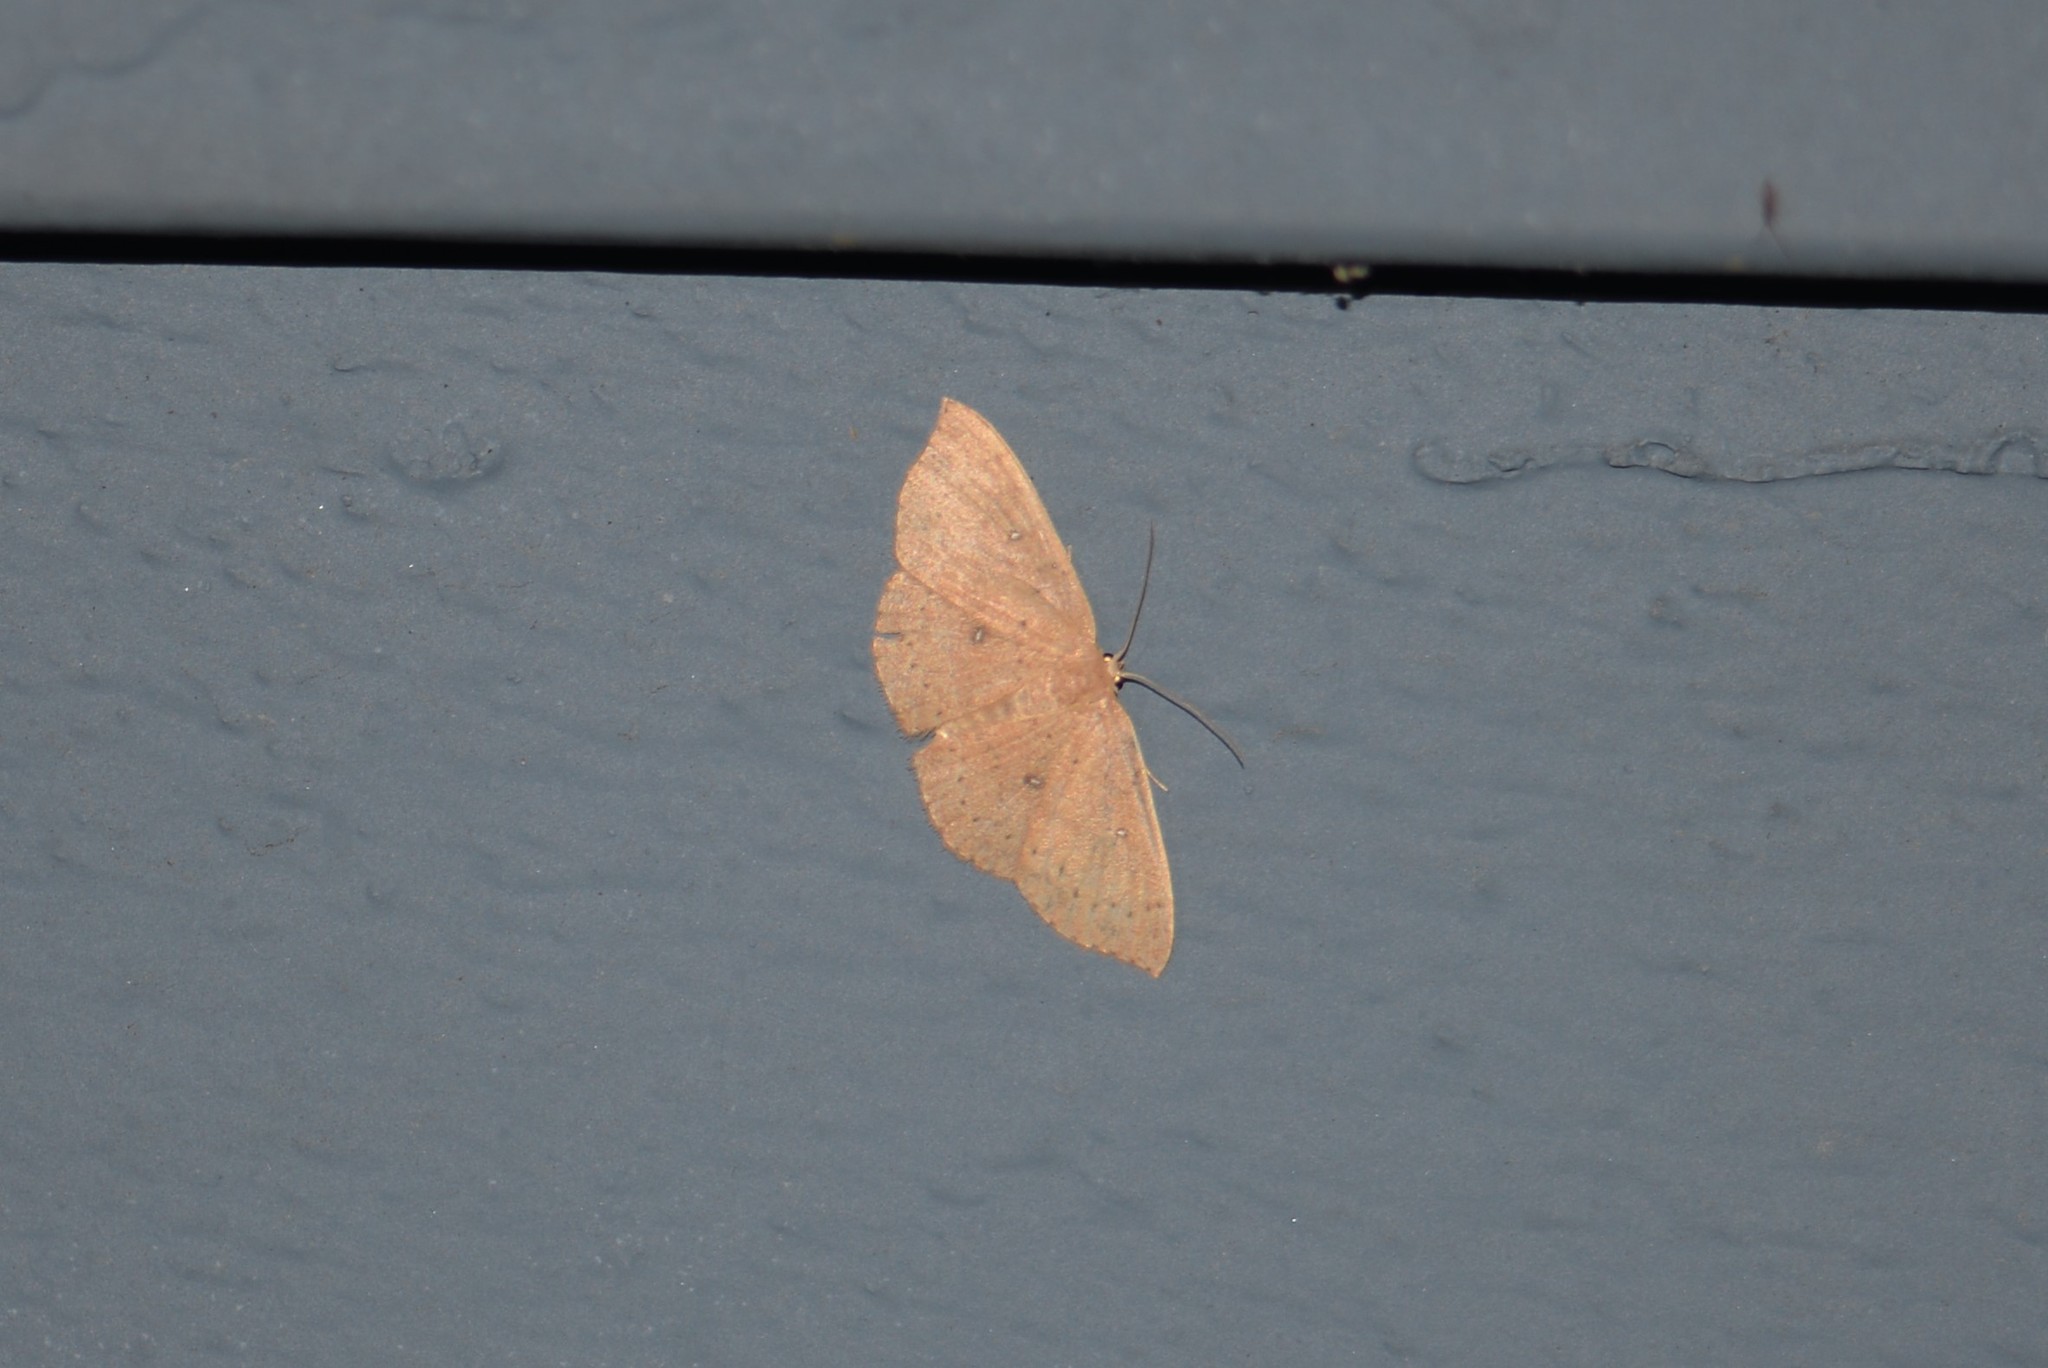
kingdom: Animalia
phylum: Arthropoda
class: Insecta
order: Lepidoptera
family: Geometridae
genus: Cyclophora
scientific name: Cyclophora packardi
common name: Packard's wave
